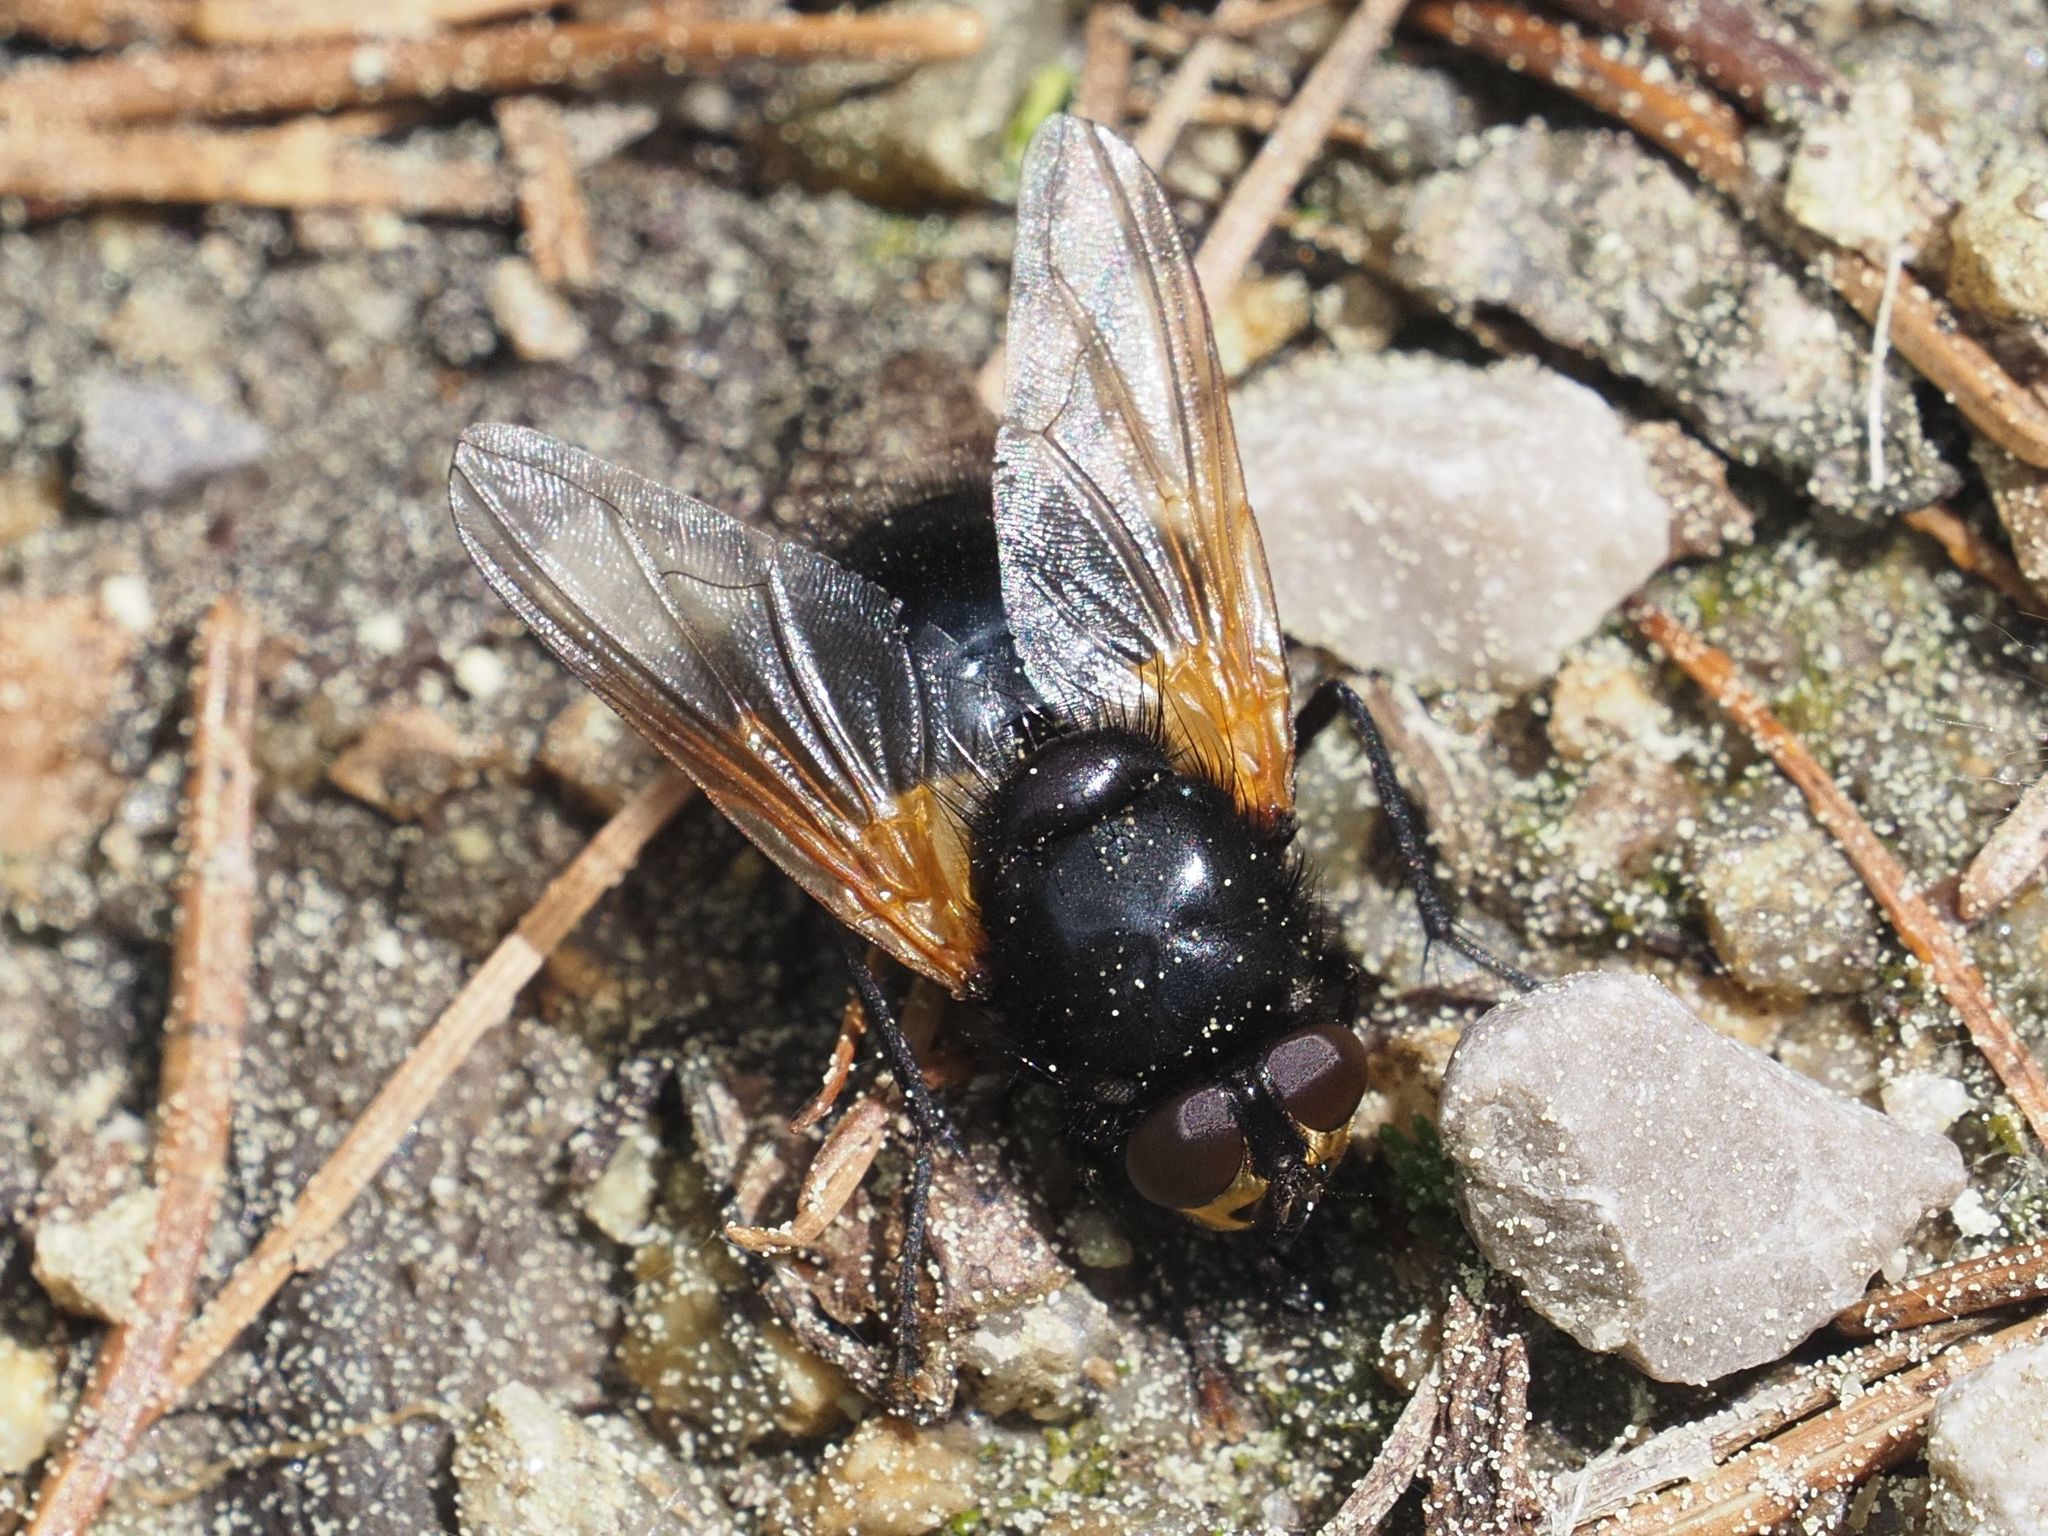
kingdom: Animalia
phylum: Arthropoda
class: Insecta
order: Diptera
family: Muscidae
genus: Mesembrina
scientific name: Mesembrina meridiana
